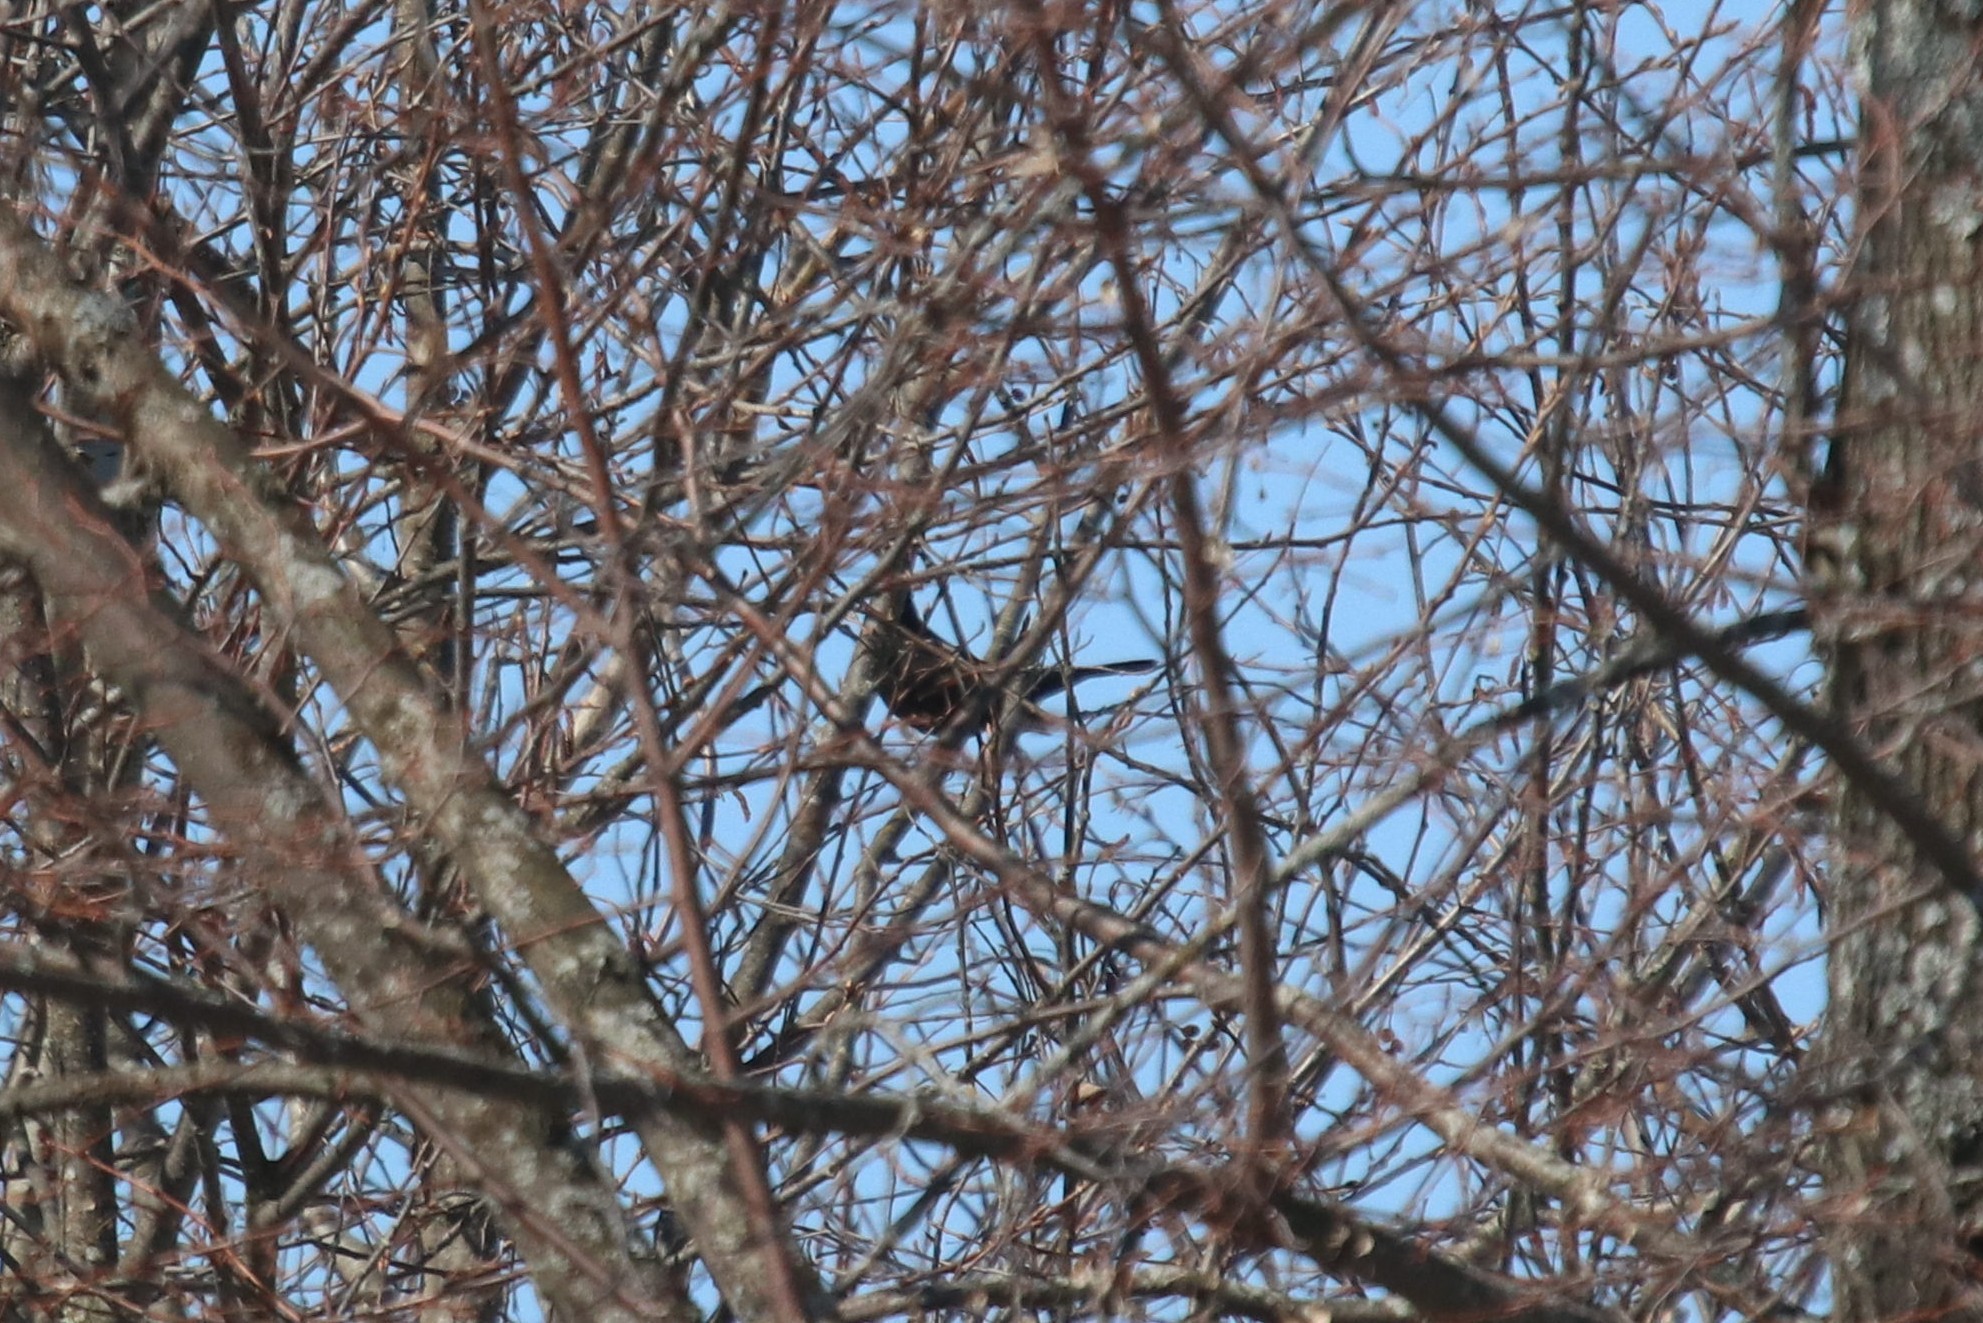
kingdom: Animalia
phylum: Chordata
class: Aves
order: Passeriformes
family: Turdidae
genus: Turdus
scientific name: Turdus merula
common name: Common blackbird
